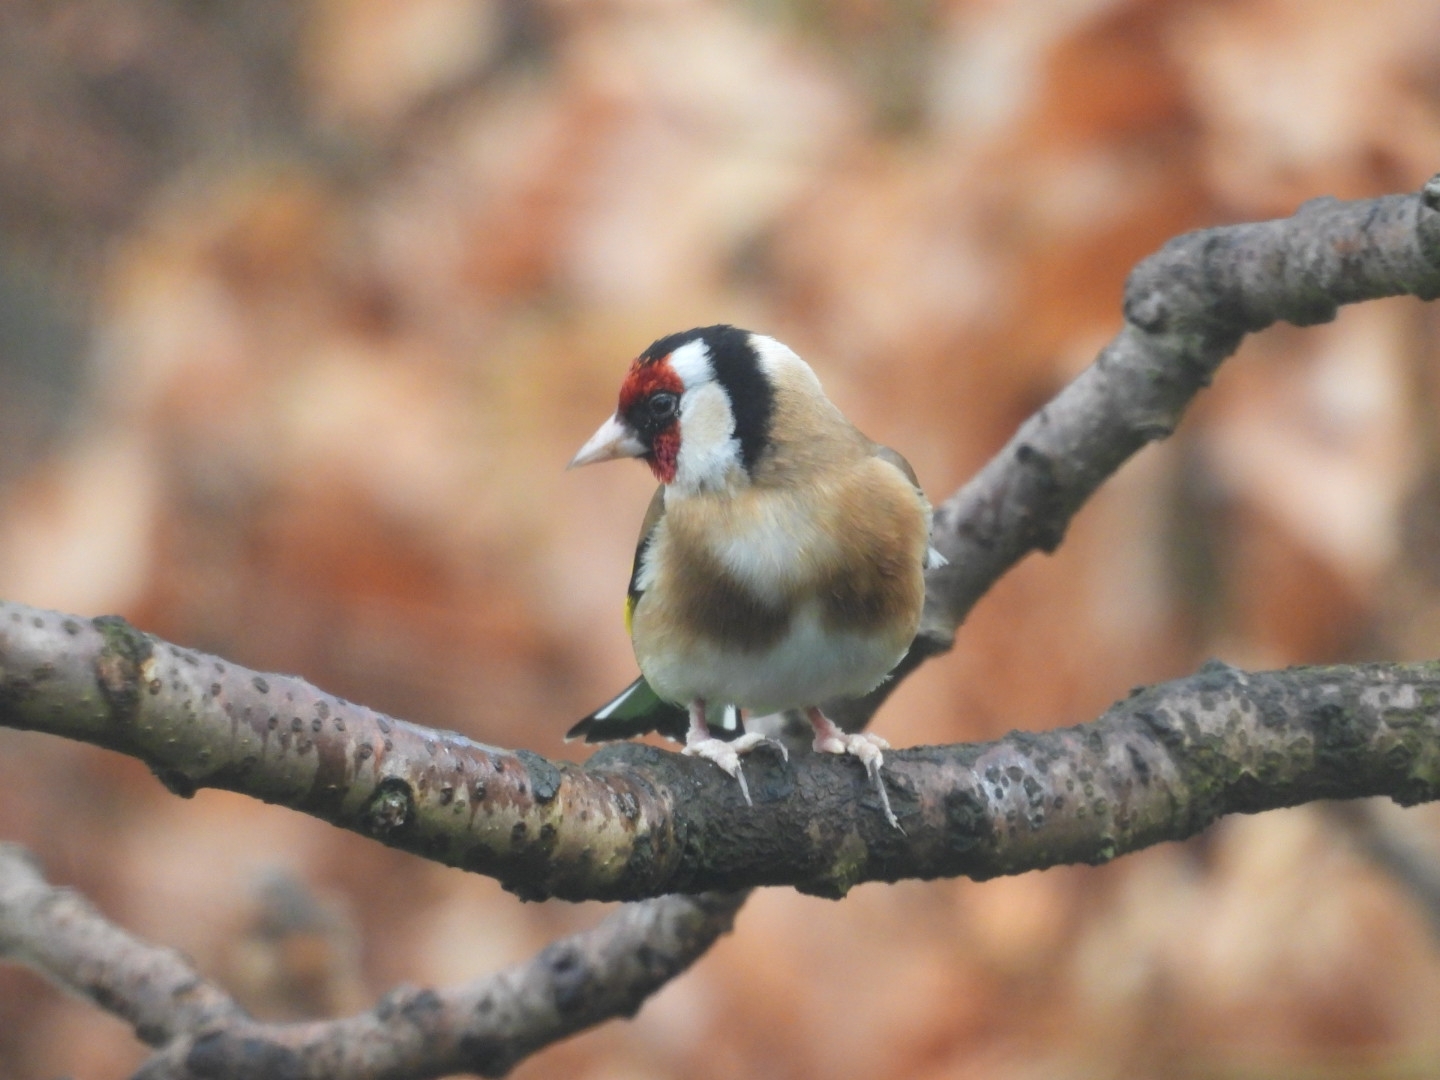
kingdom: Animalia
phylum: Chordata
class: Aves
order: Passeriformes
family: Fringillidae
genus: Carduelis
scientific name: Carduelis carduelis
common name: European goldfinch
